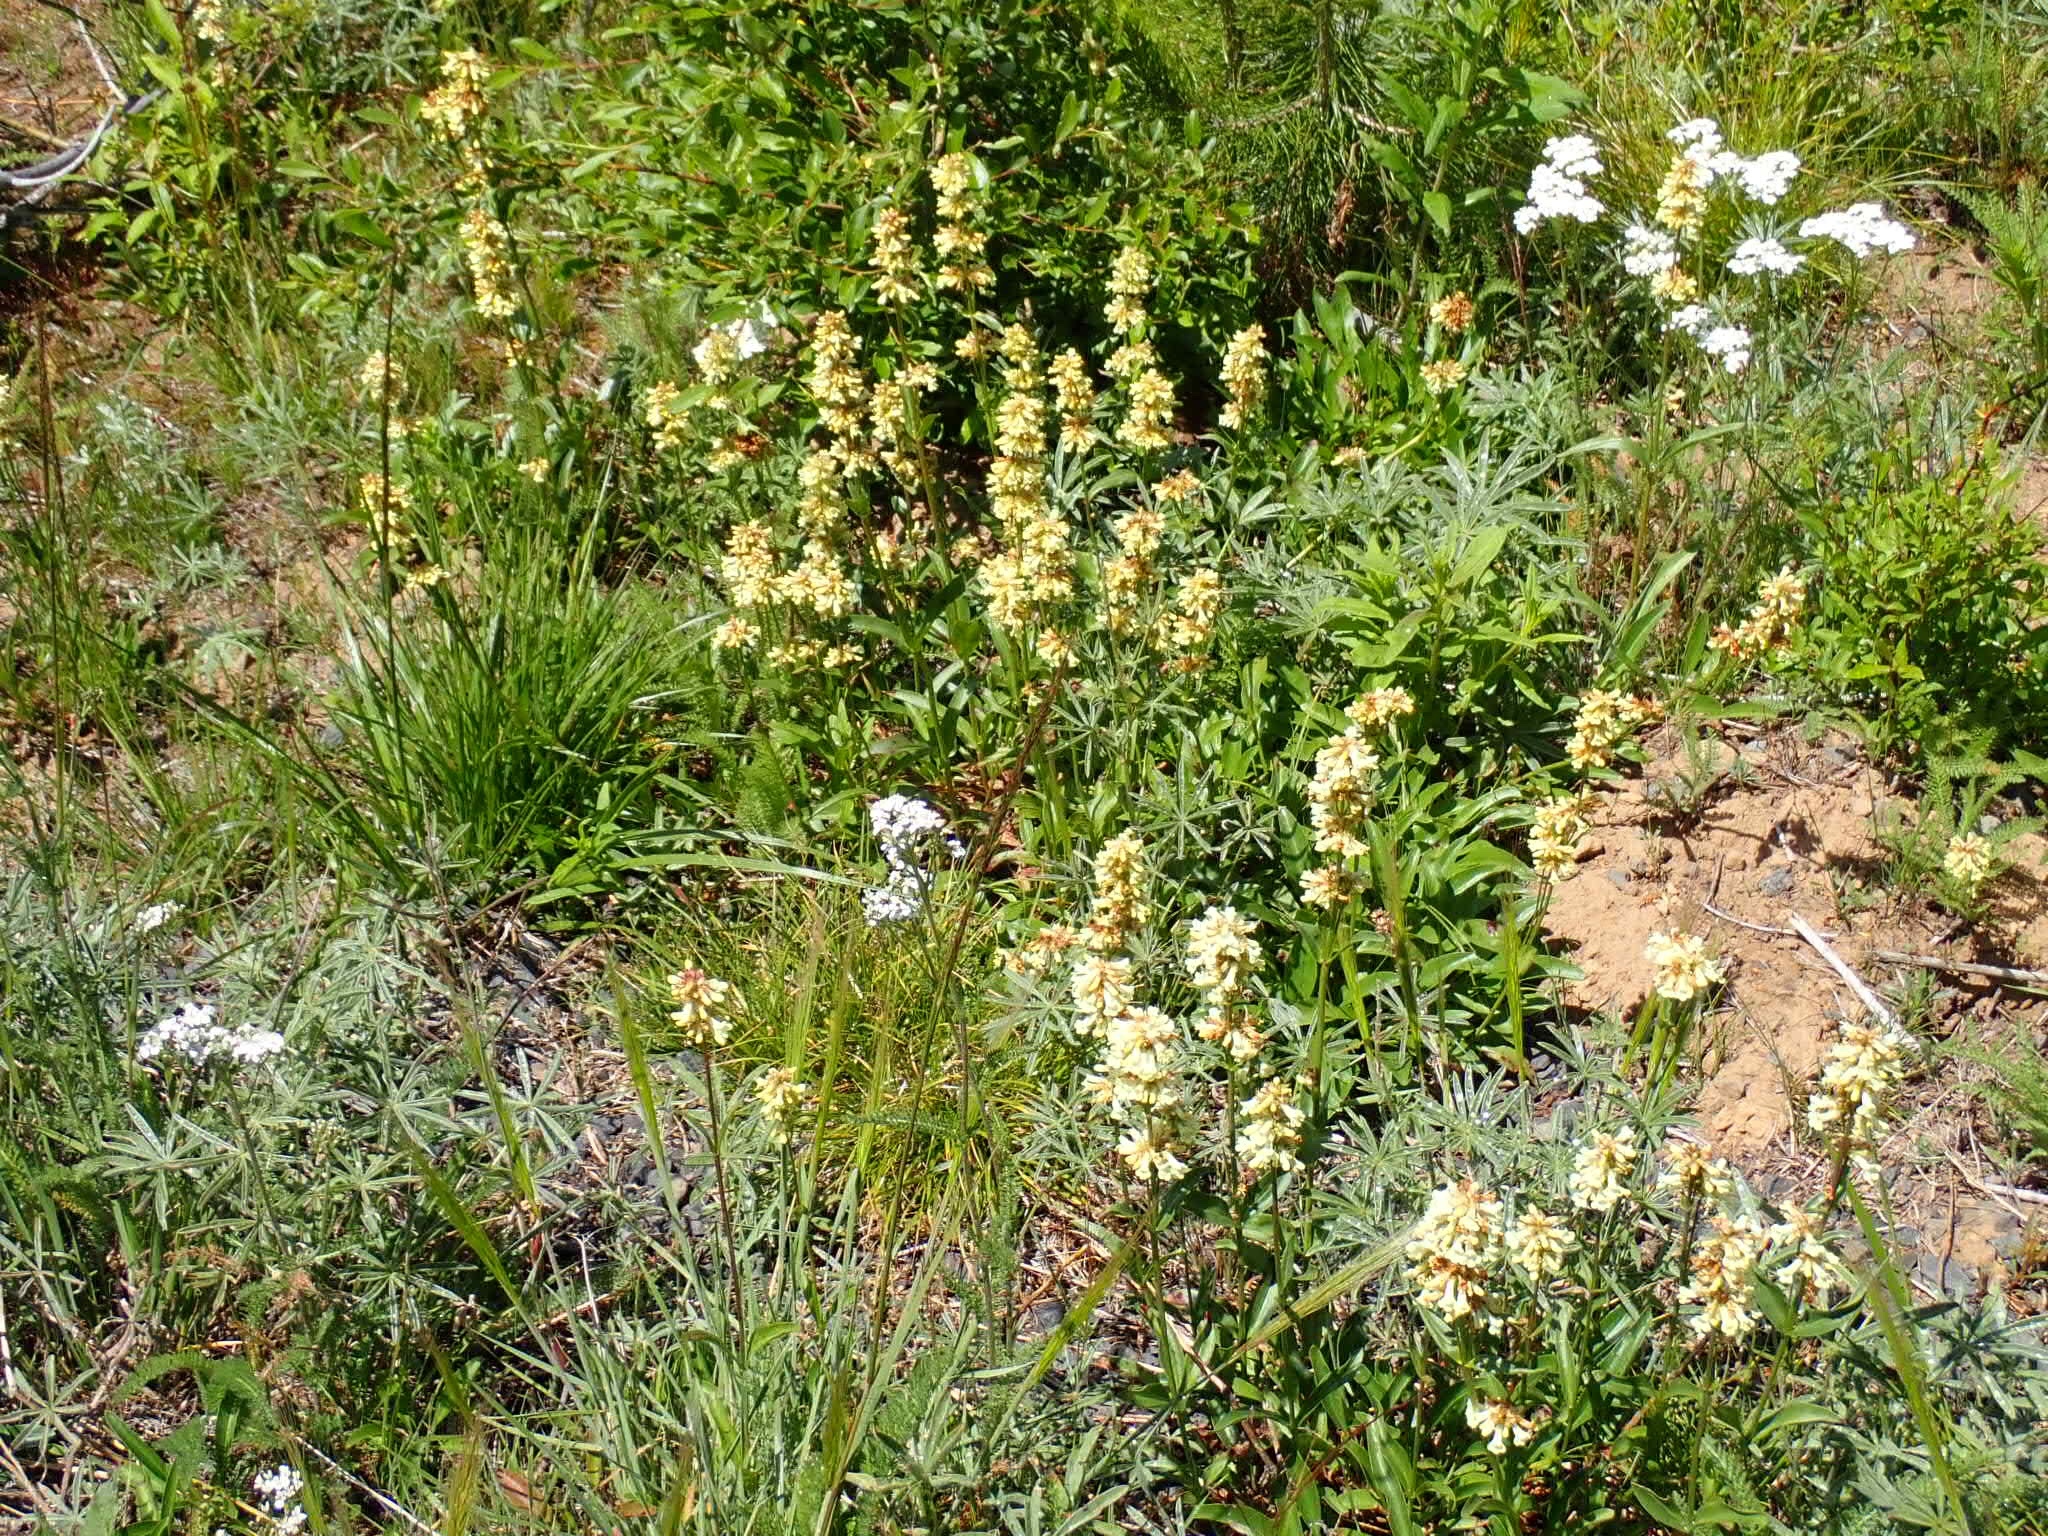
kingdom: Plantae
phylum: Tracheophyta
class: Magnoliopsida
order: Lamiales
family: Plantaginaceae
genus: Penstemon
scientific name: Penstemon confertus
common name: Lesser yellow beardtongue
